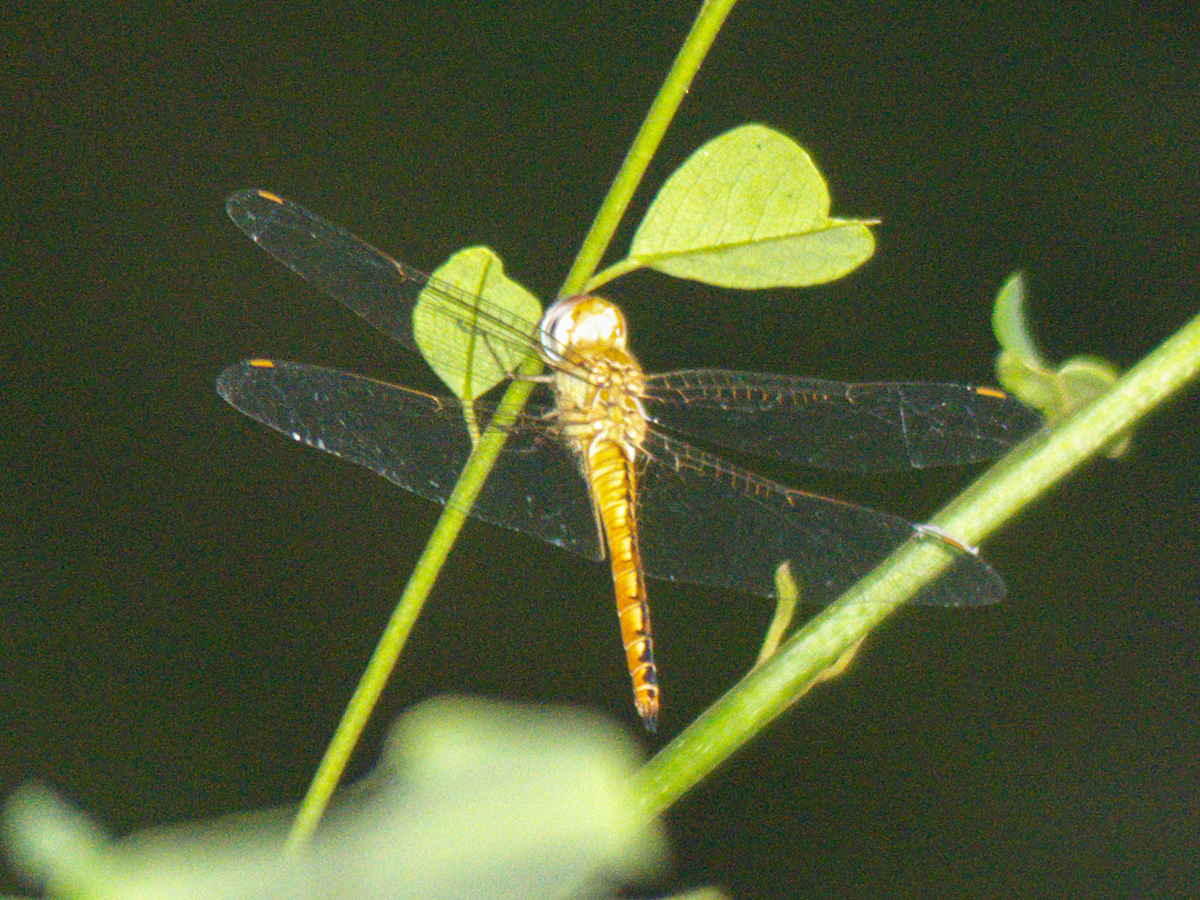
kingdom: Animalia
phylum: Arthropoda
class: Insecta
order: Odonata
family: Libellulidae
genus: Pantala
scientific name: Pantala flavescens
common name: Wandering glider
